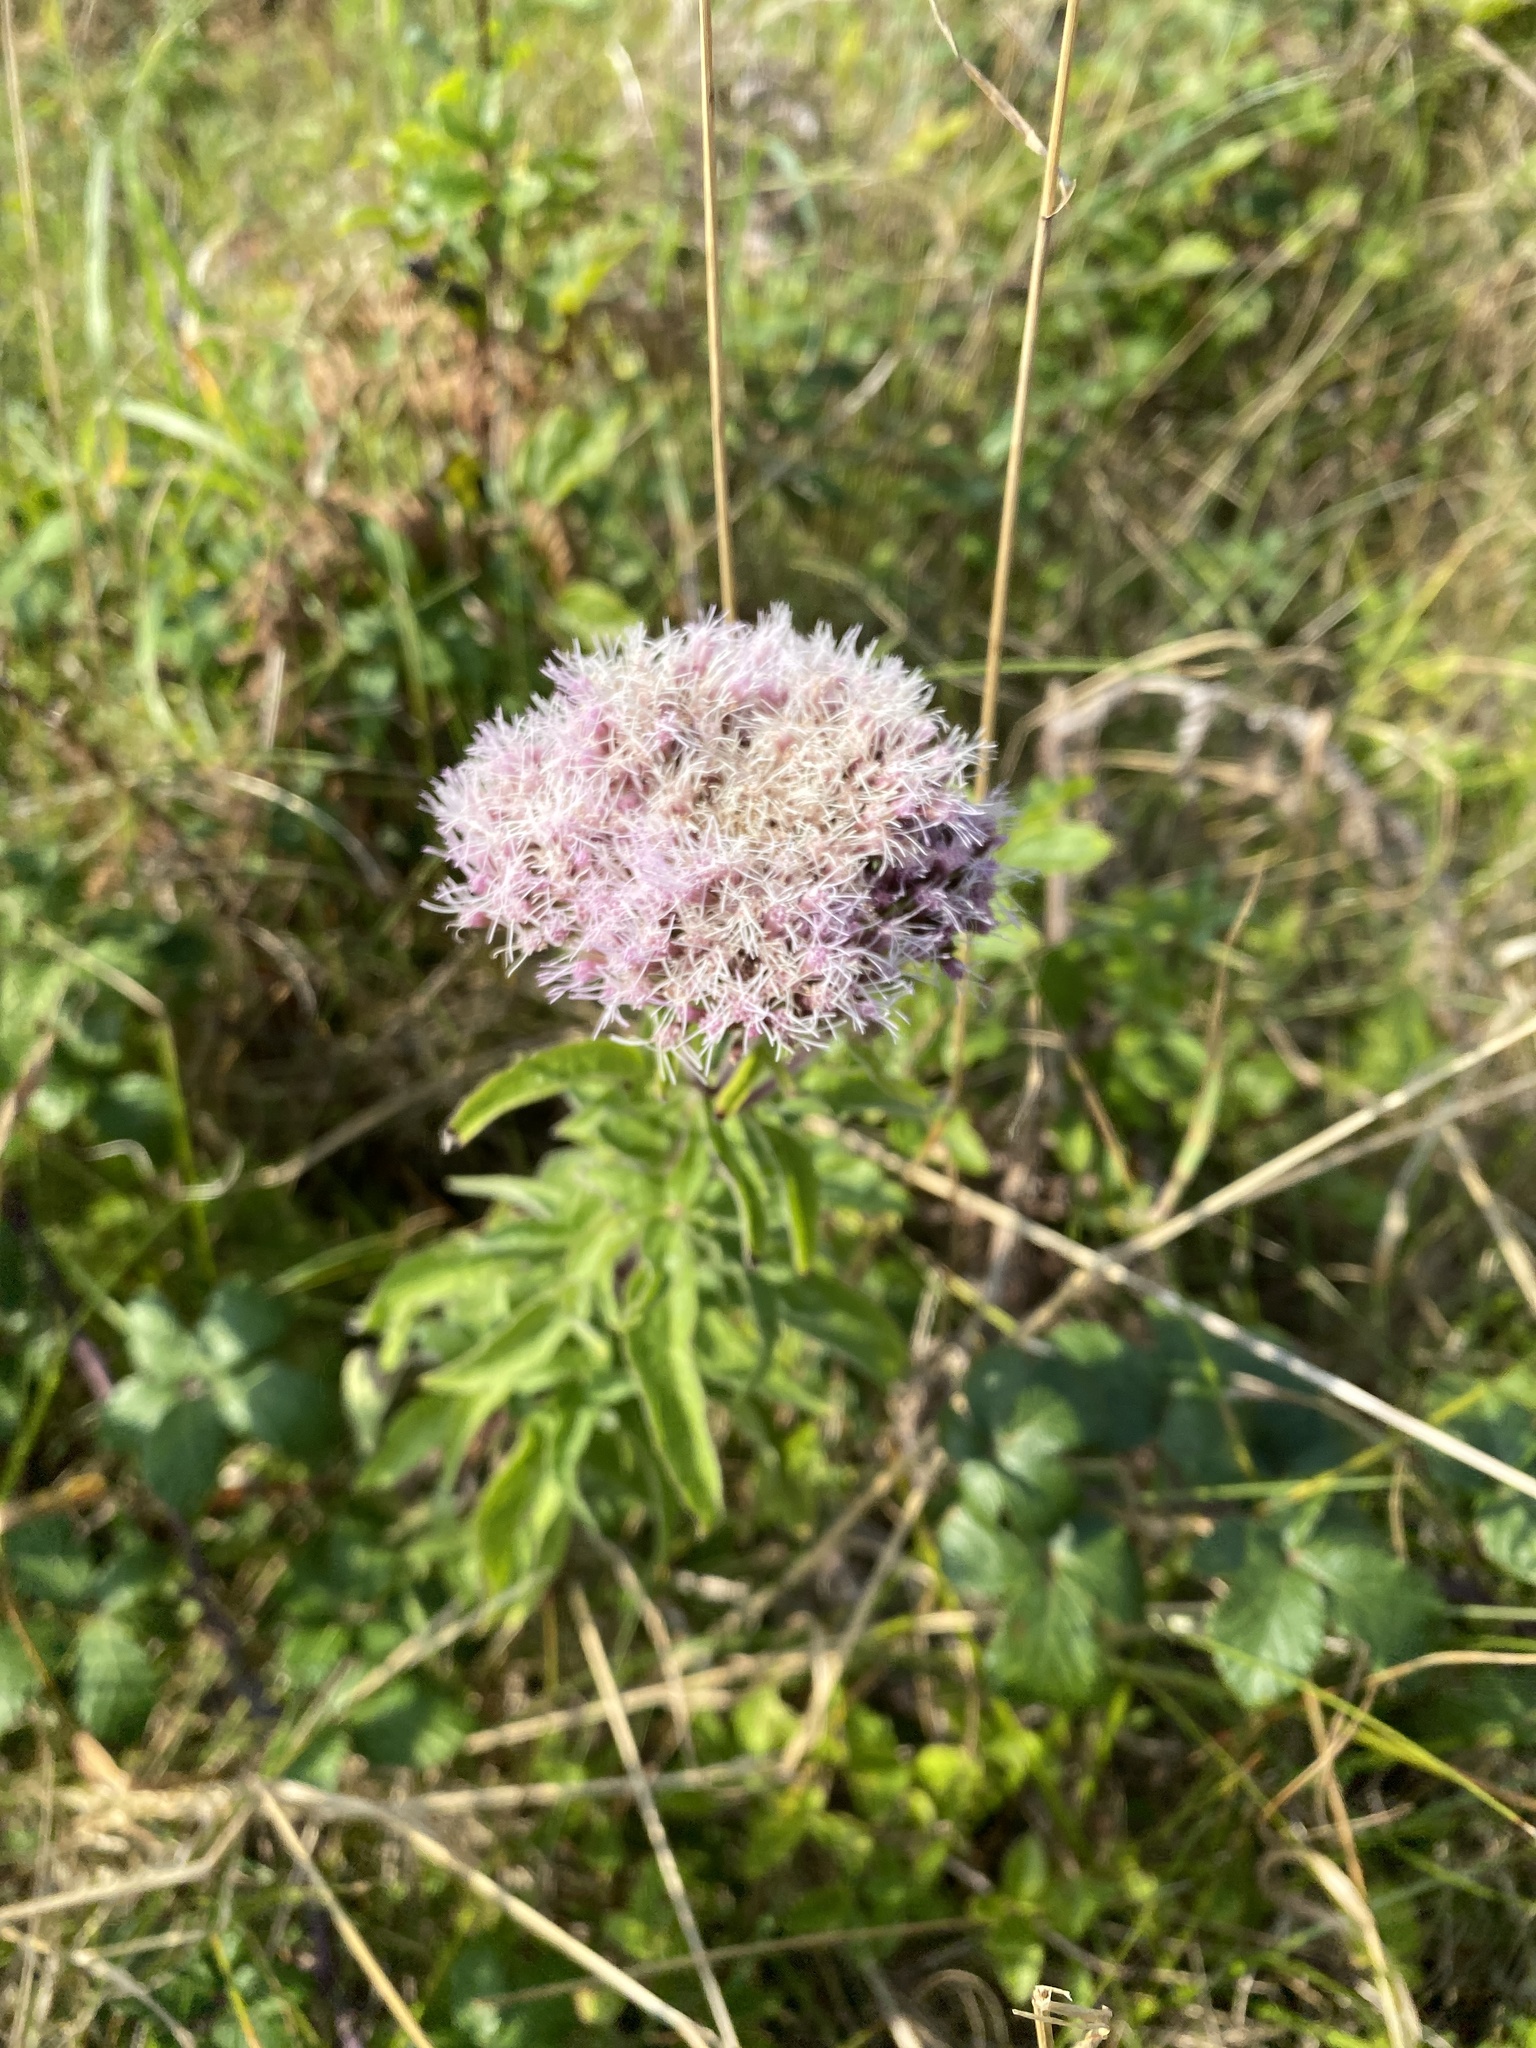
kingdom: Plantae
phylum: Tracheophyta
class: Magnoliopsida
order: Asterales
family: Asteraceae
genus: Eupatorium
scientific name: Eupatorium cannabinum
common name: Hemp-agrimony
